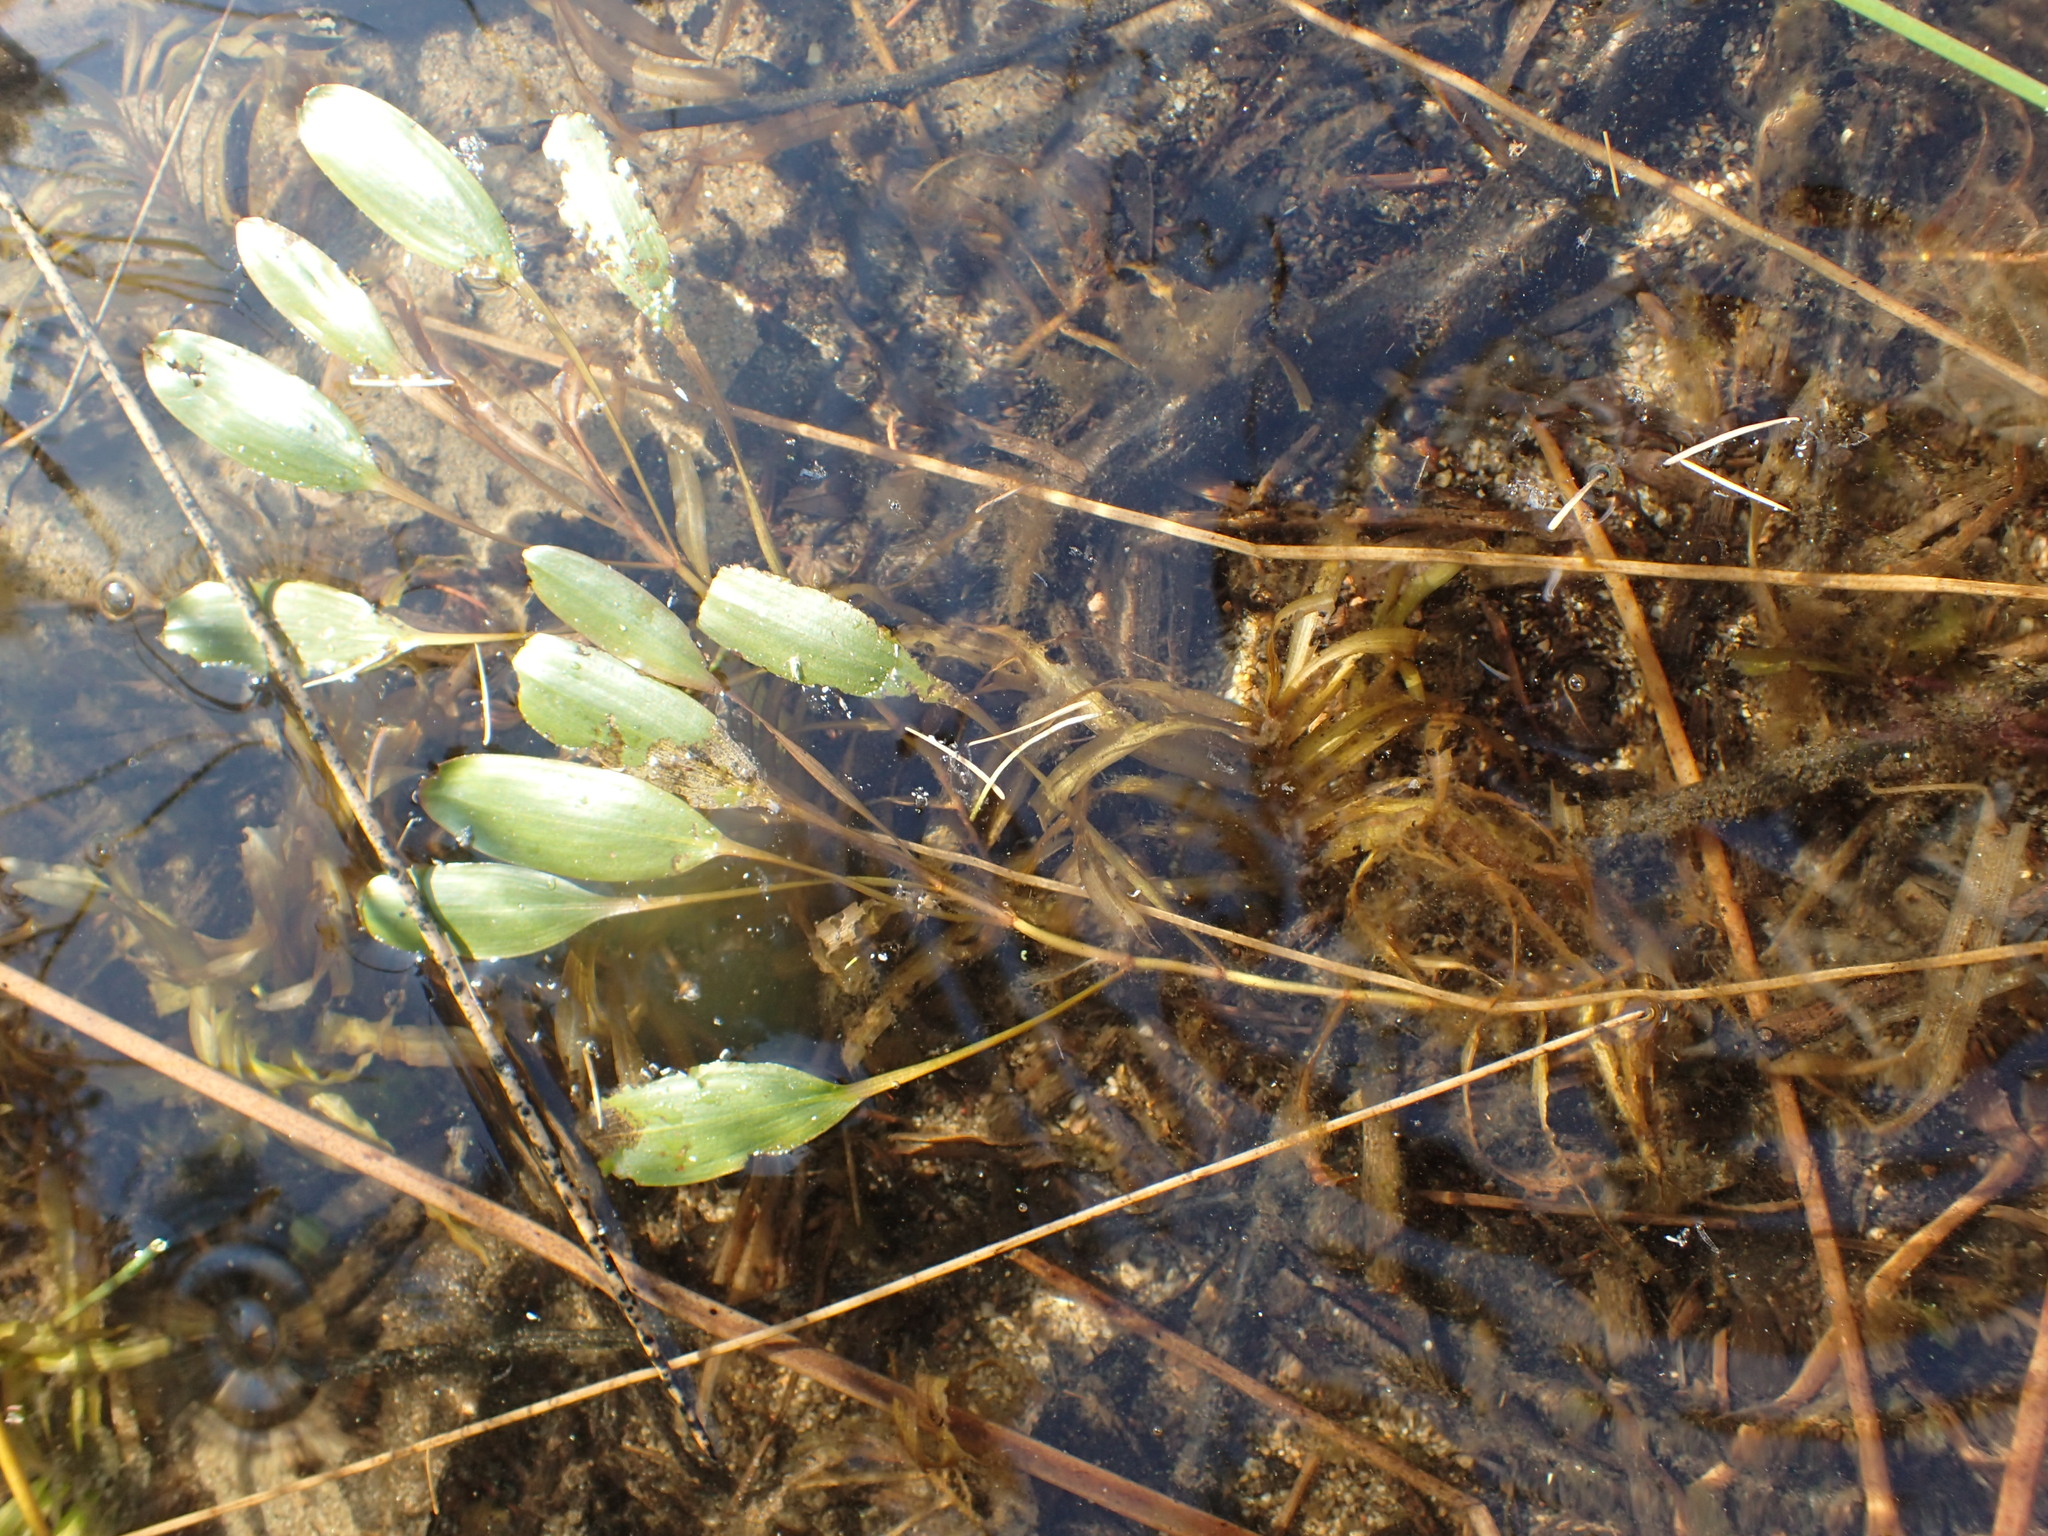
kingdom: Plantae
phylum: Tracheophyta
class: Liliopsida
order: Alismatales
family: Potamogetonaceae
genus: Potamogeton
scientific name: Potamogeton epihydrus
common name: American pondweed
